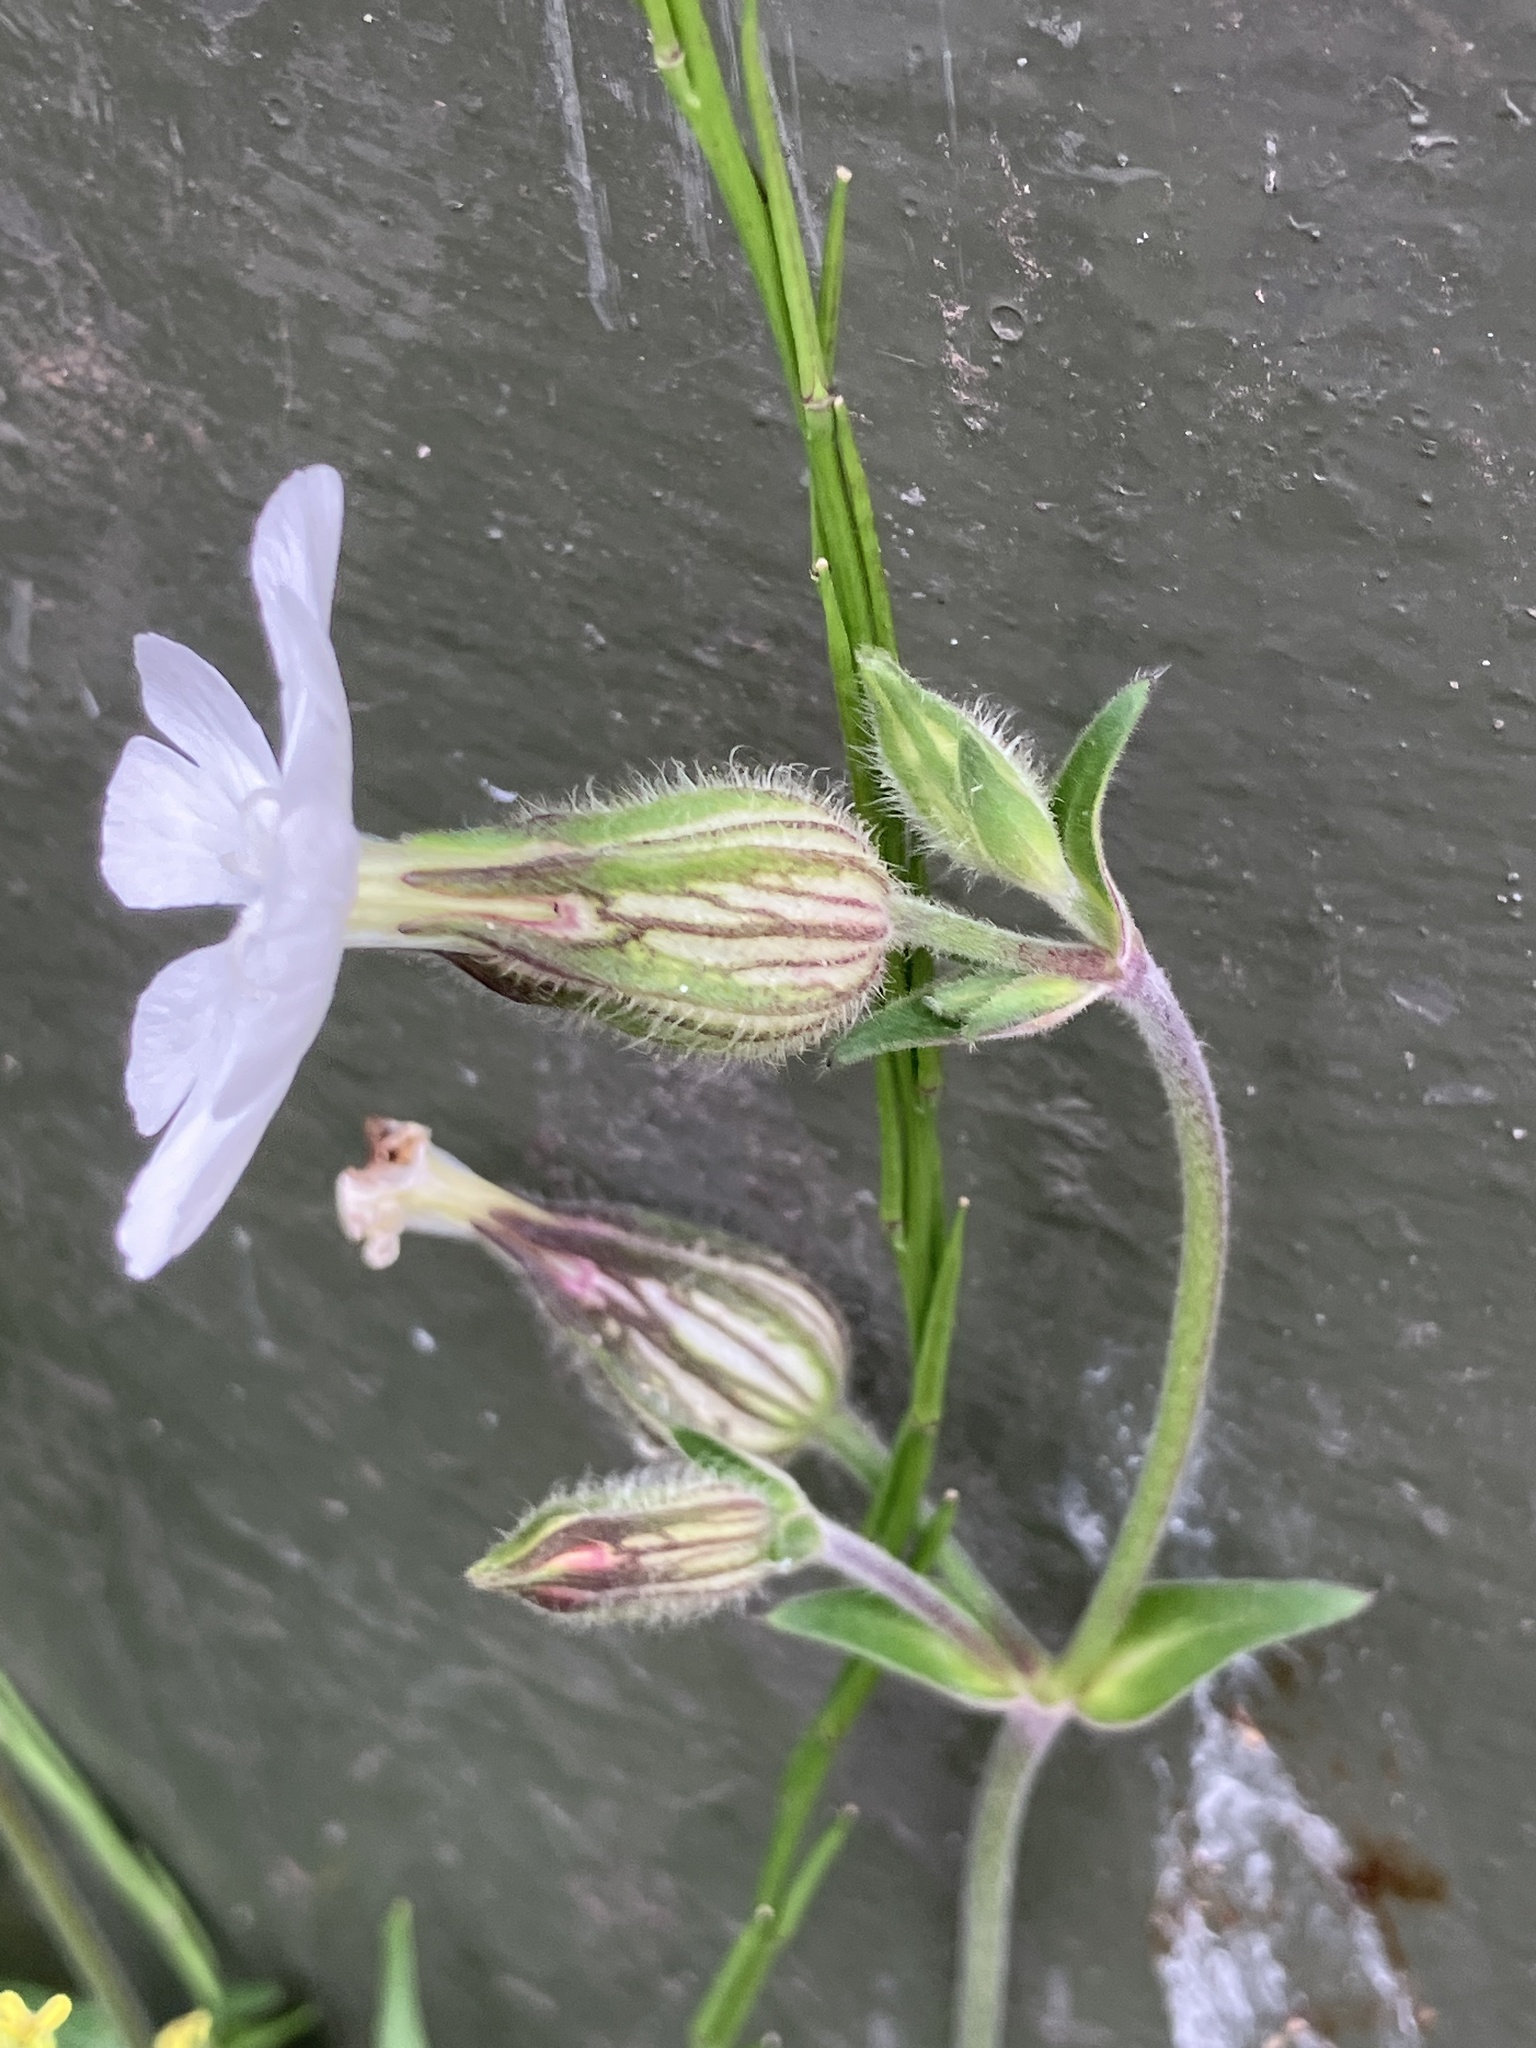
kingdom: Plantae
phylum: Tracheophyta
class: Magnoliopsida
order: Caryophyllales
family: Caryophyllaceae
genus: Silene
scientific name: Silene latifolia
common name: White campion
